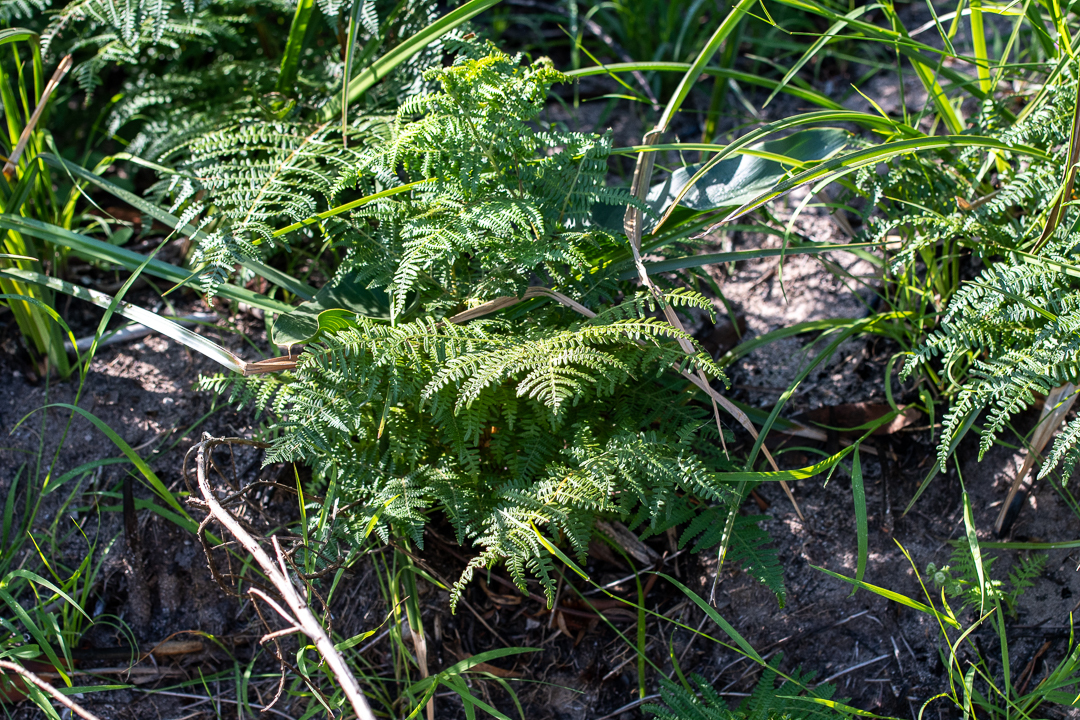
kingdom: Plantae
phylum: Tracheophyta
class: Polypodiopsida
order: Polypodiales
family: Dennstaedtiaceae
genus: Pteridium
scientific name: Pteridium aquilinum
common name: Bracken
